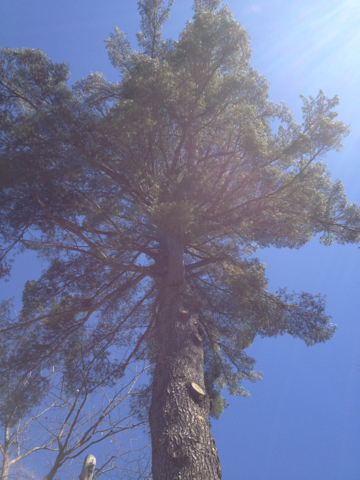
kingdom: Plantae
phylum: Tracheophyta
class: Pinopsida
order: Pinales
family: Pinaceae
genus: Pinus
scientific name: Pinus strobus
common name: Weymouth pine
